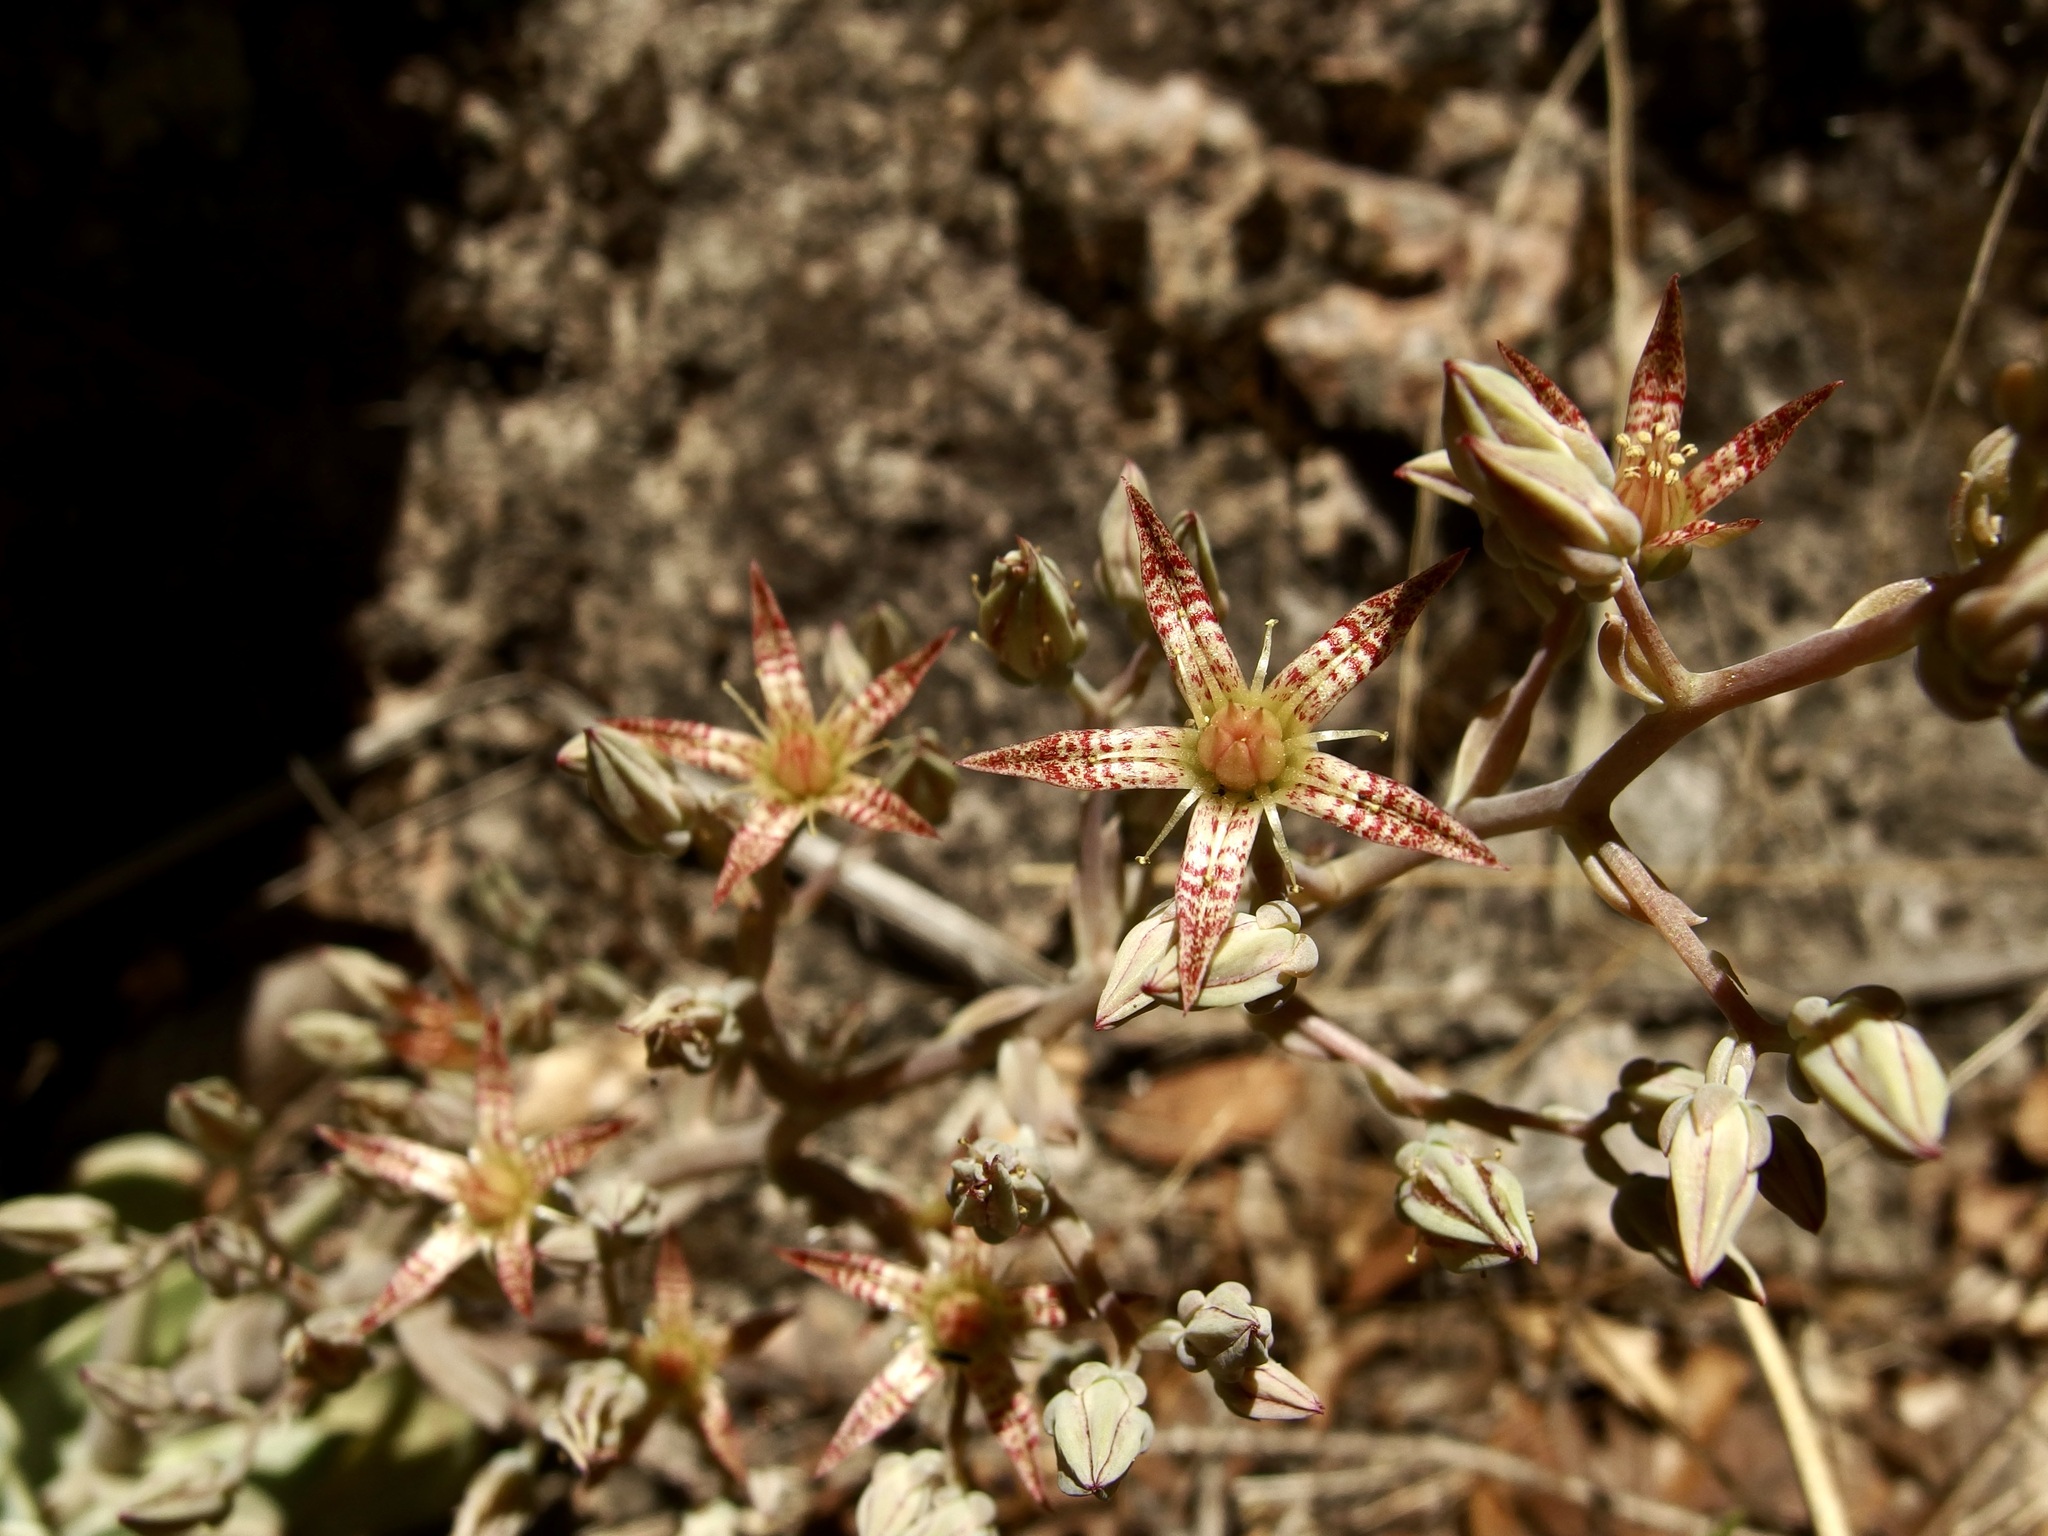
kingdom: Plantae
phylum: Tracheophyta
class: Magnoliopsida
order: Saxifragales
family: Crassulaceae
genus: Graptopetalum
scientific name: Graptopetalum bartramii
